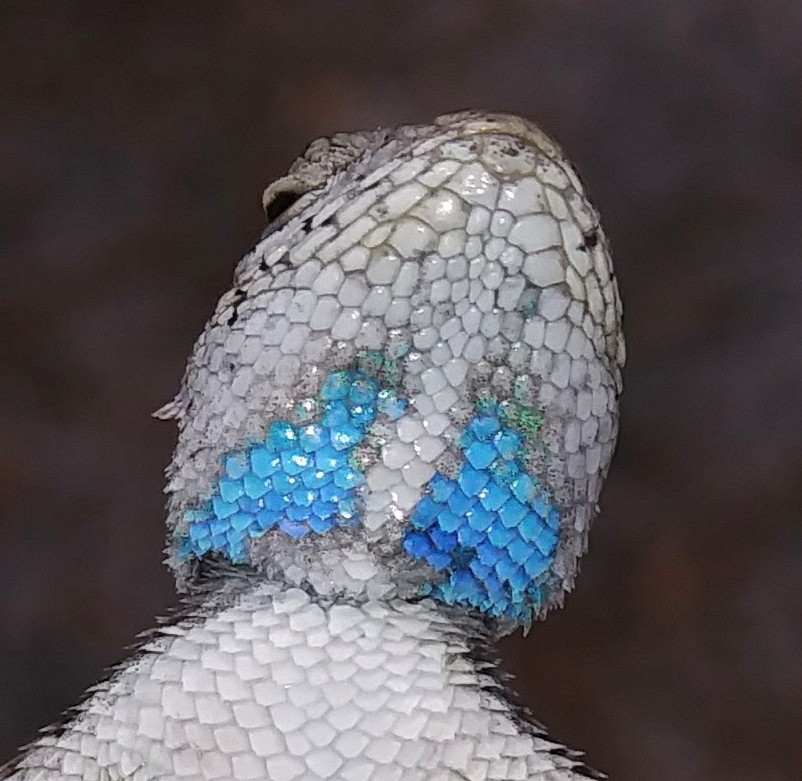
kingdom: Animalia
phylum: Chordata
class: Squamata
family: Phrynosomatidae
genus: Sceloporus
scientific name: Sceloporus woodi
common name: Florida scrub lizard
